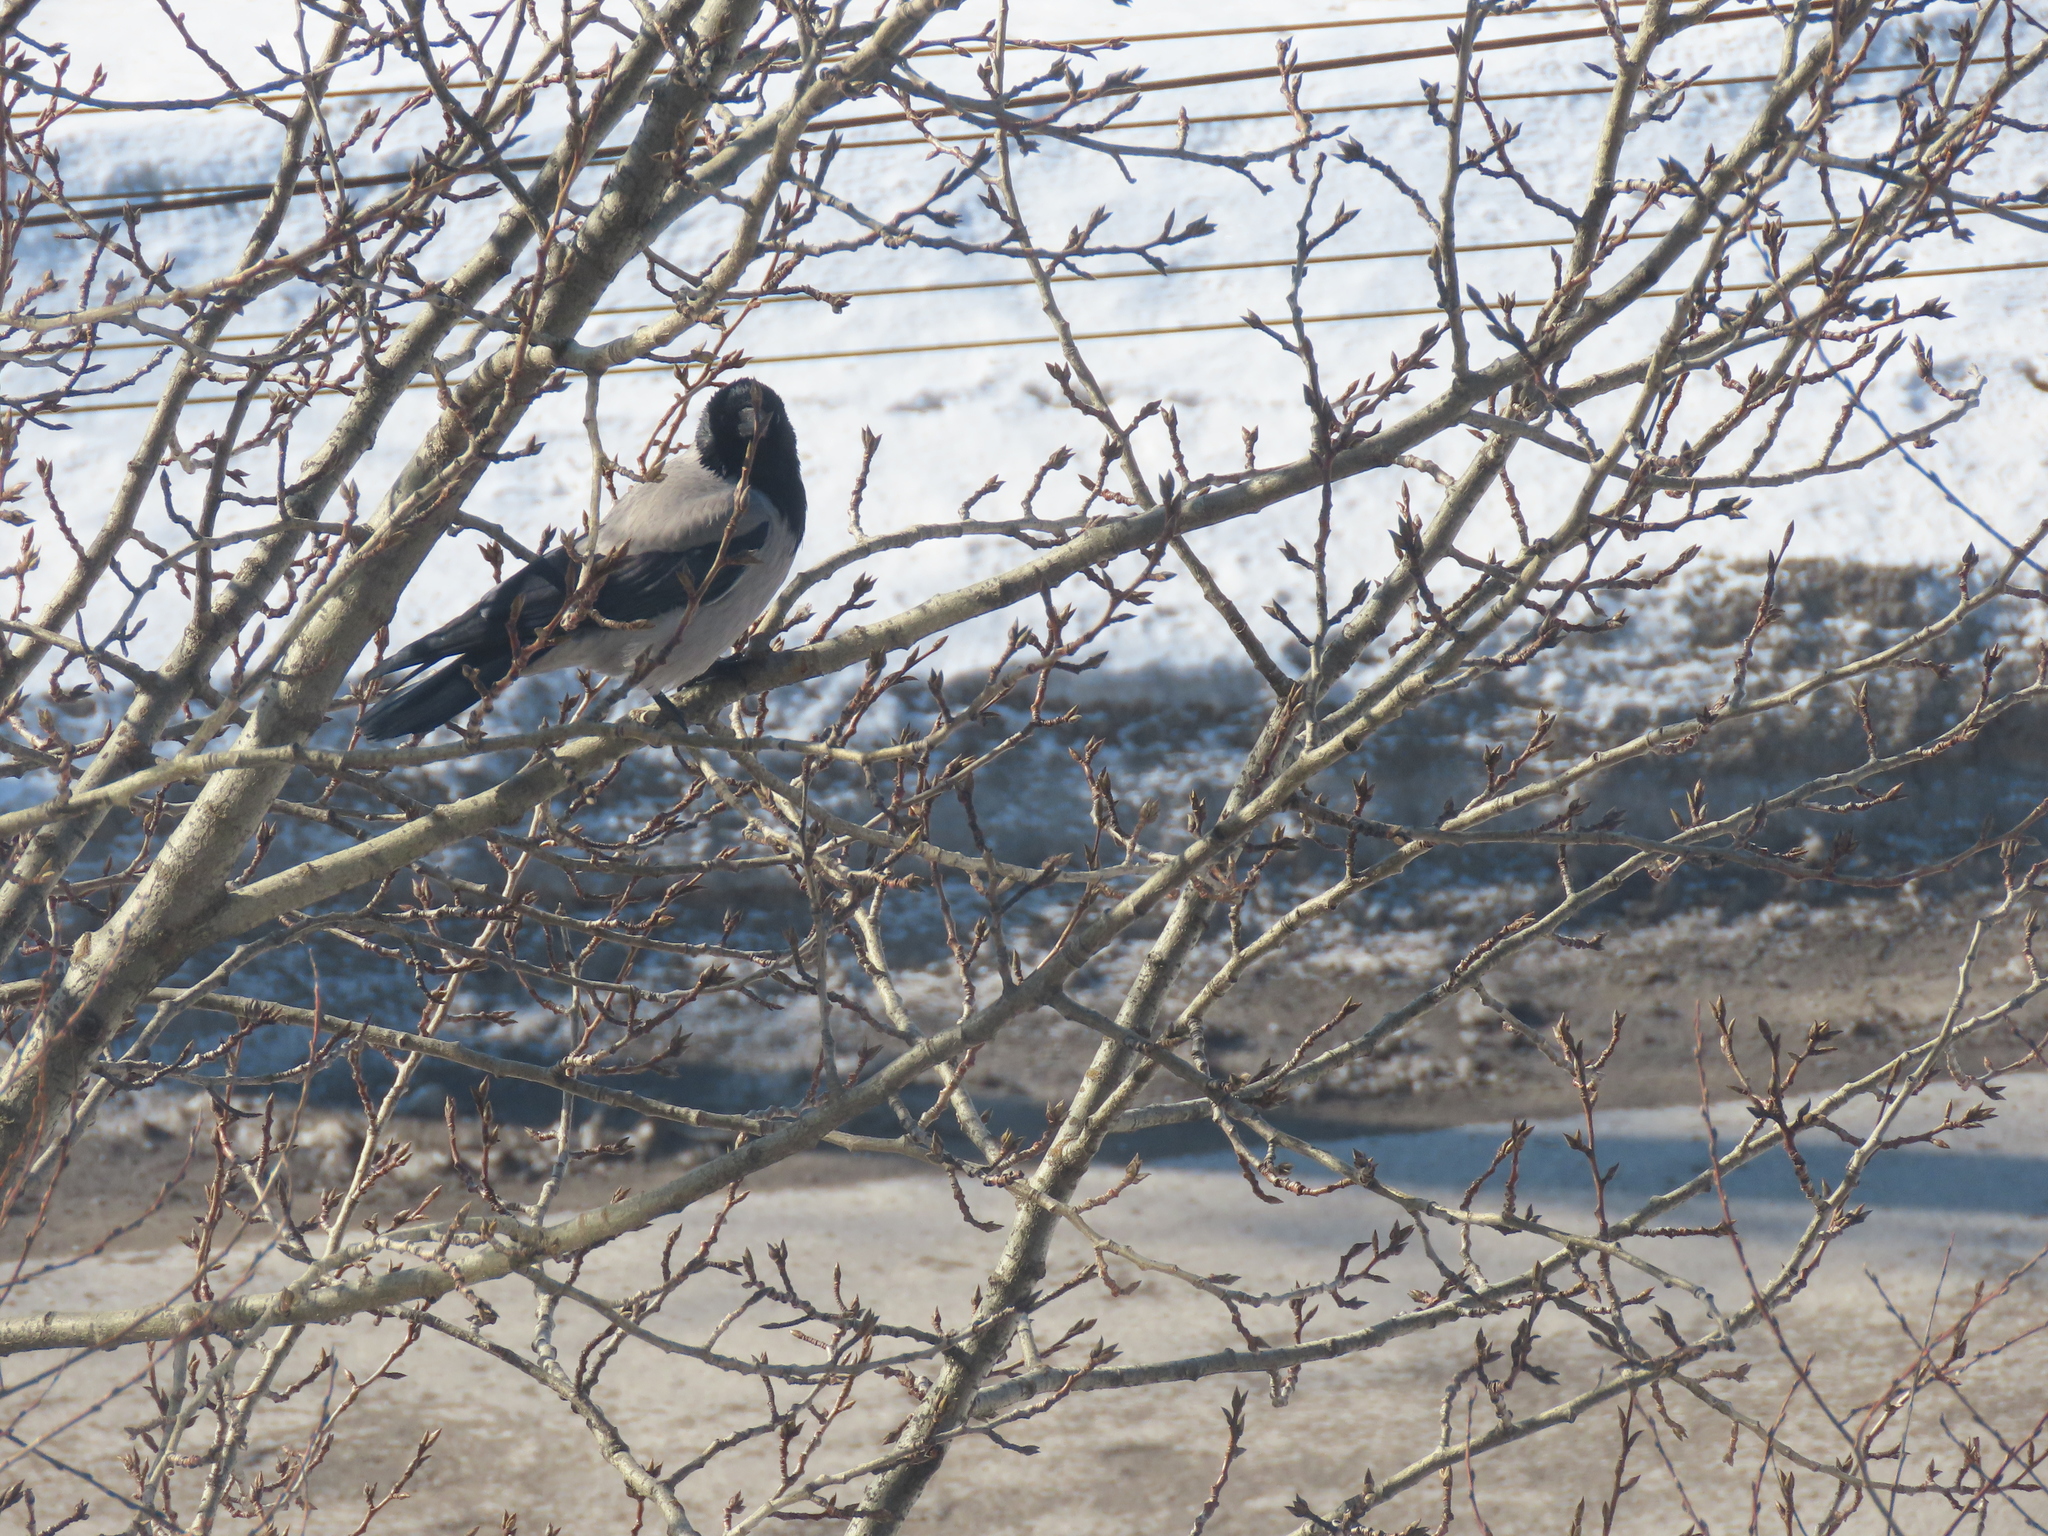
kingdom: Animalia
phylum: Chordata
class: Aves
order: Passeriformes
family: Corvidae
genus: Corvus
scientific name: Corvus cornix
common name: Hooded crow
